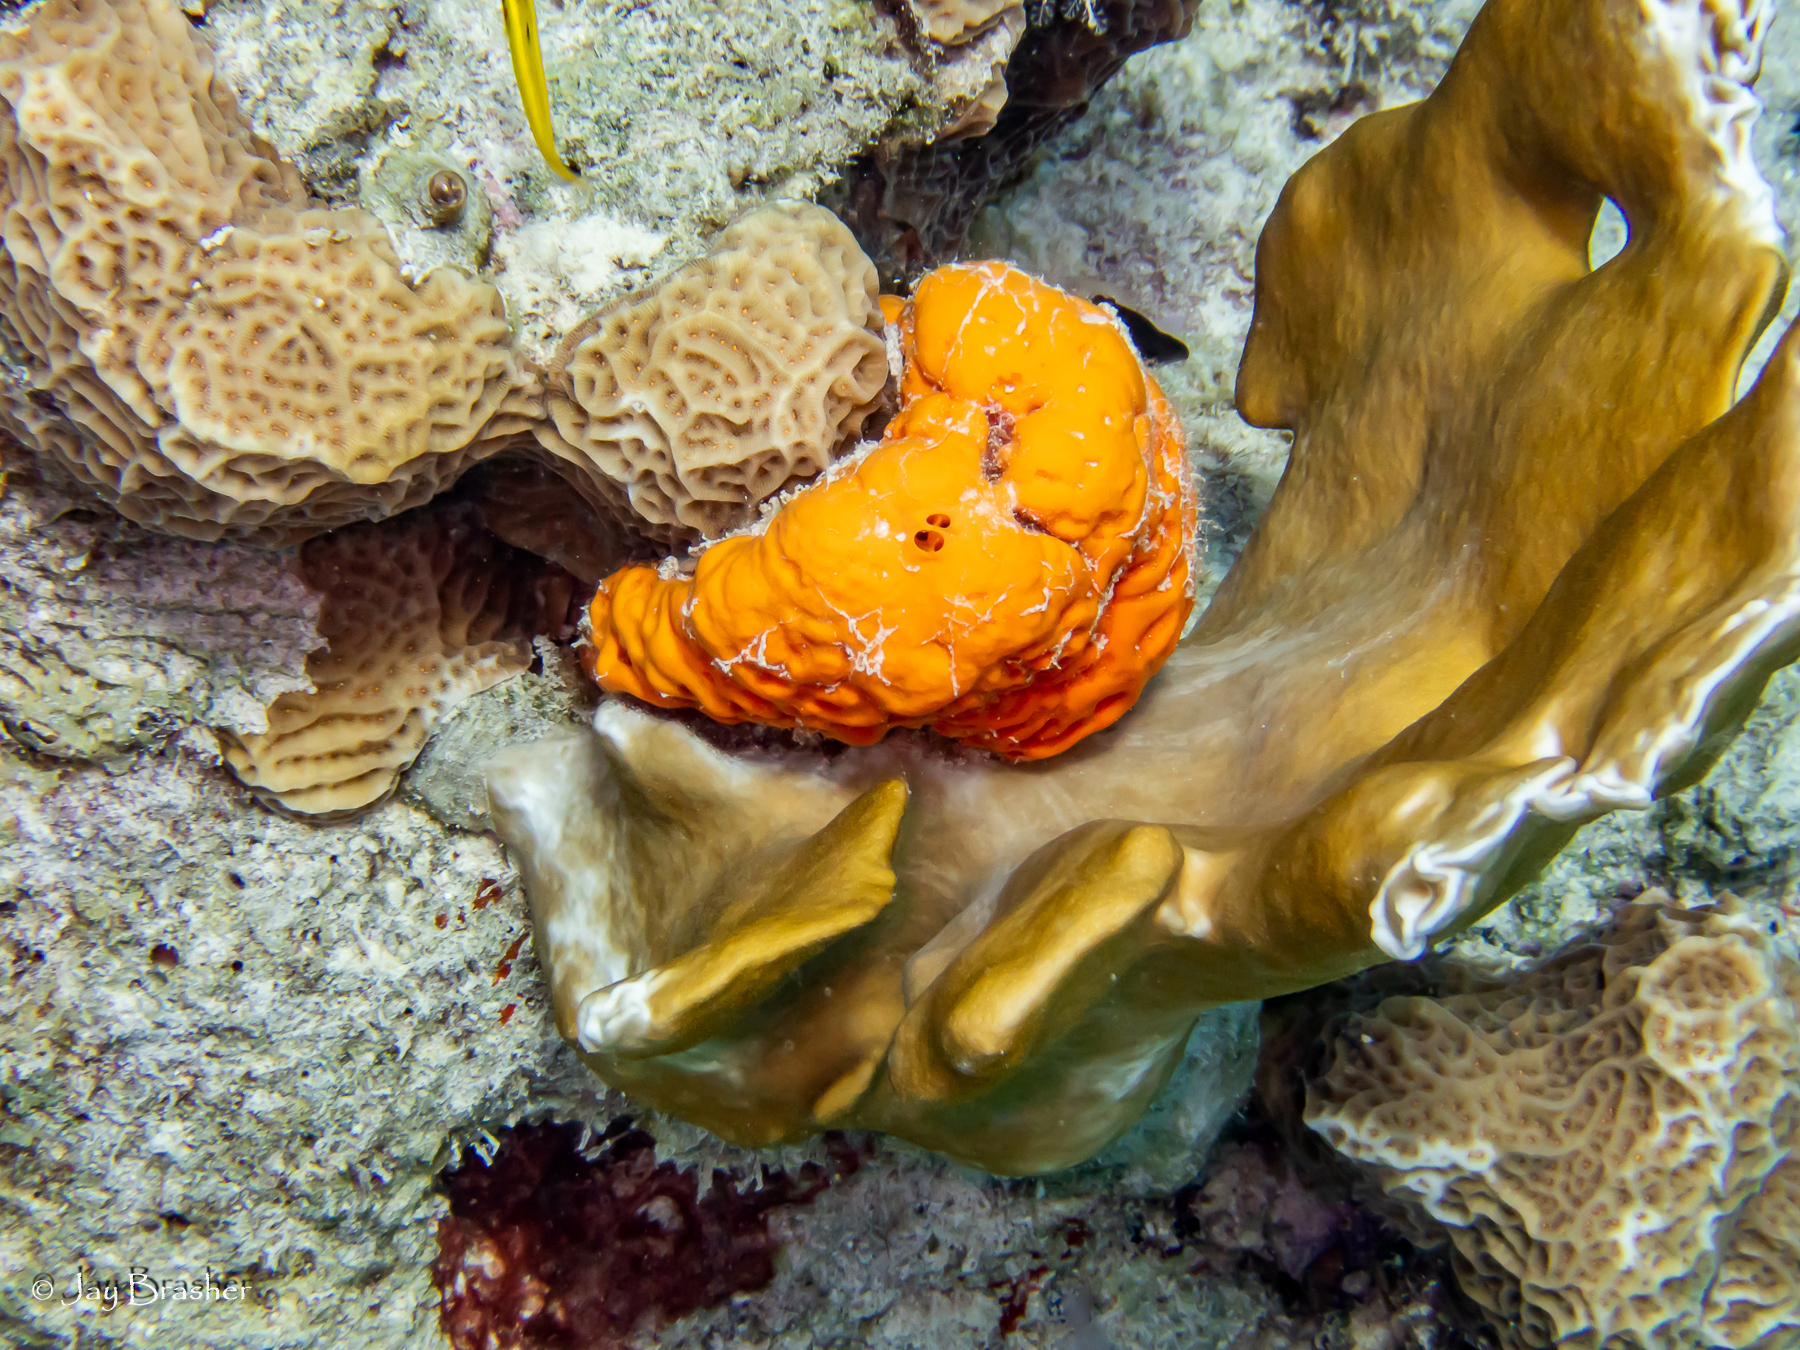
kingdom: Animalia
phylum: Porifera
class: Demospongiae
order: Agelasida
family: Agelasidae
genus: Agelas
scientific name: Agelas clathrodes
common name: Orange elephant ear sponge
